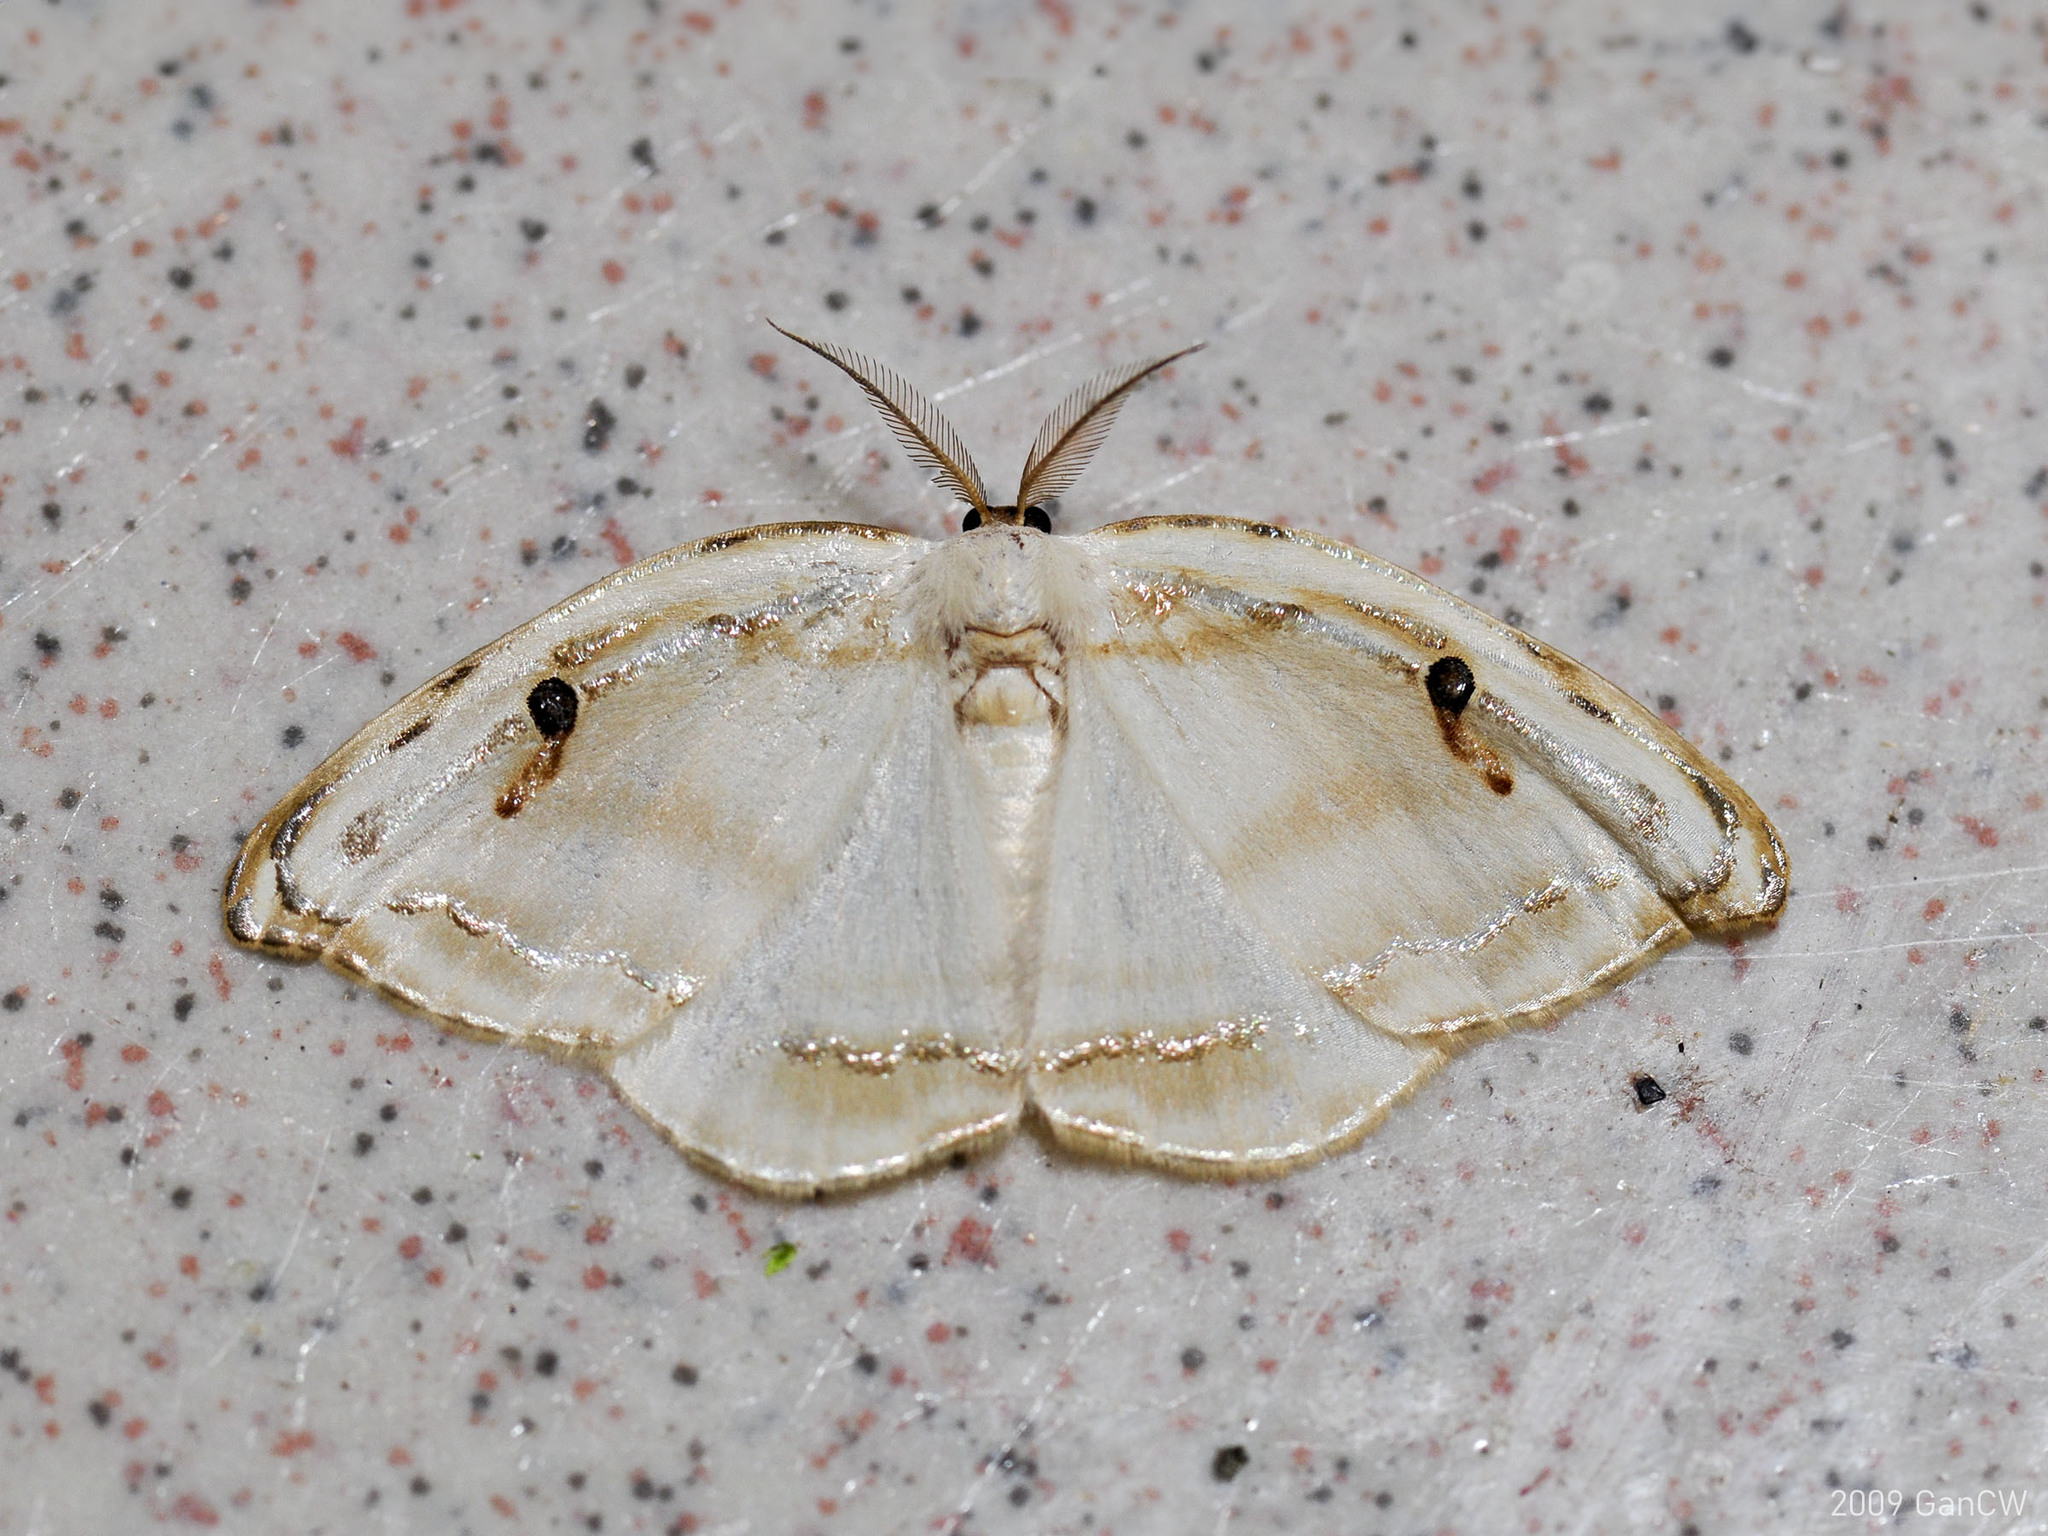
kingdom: Animalia
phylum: Arthropoda
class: Insecta
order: Lepidoptera
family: Drepanidae
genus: Callidrepana
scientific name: Callidrepana gelidata
